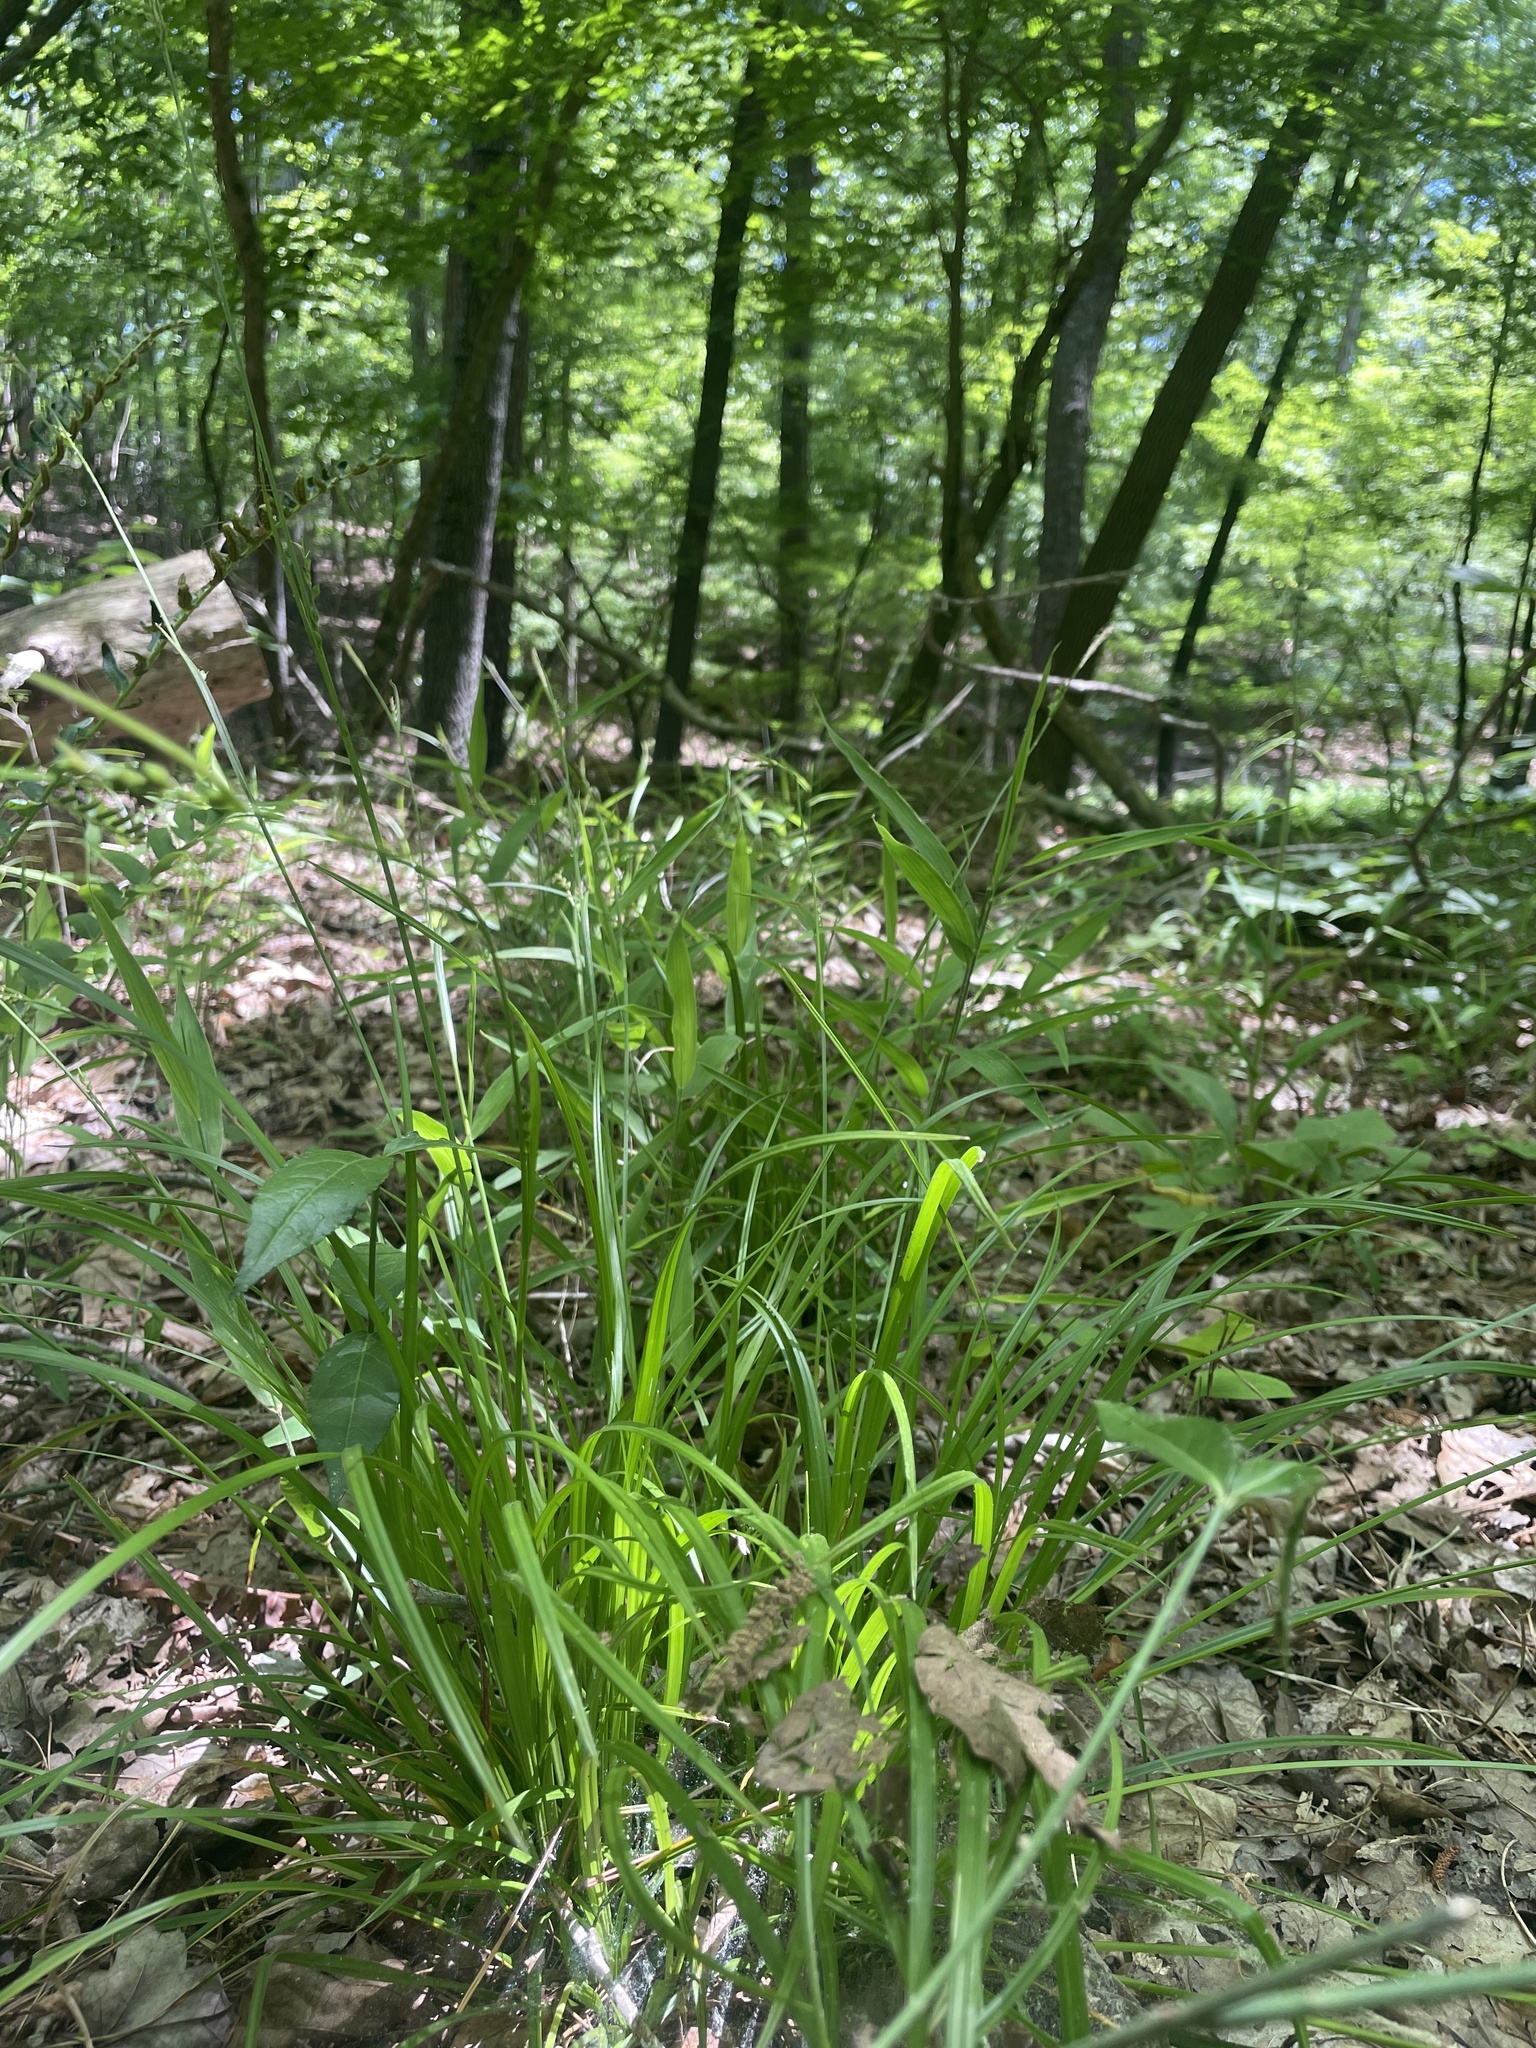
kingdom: Plantae
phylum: Tracheophyta
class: Liliopsida
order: Poales
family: Cyperaceae
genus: Carex
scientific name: Carex impressinervia
